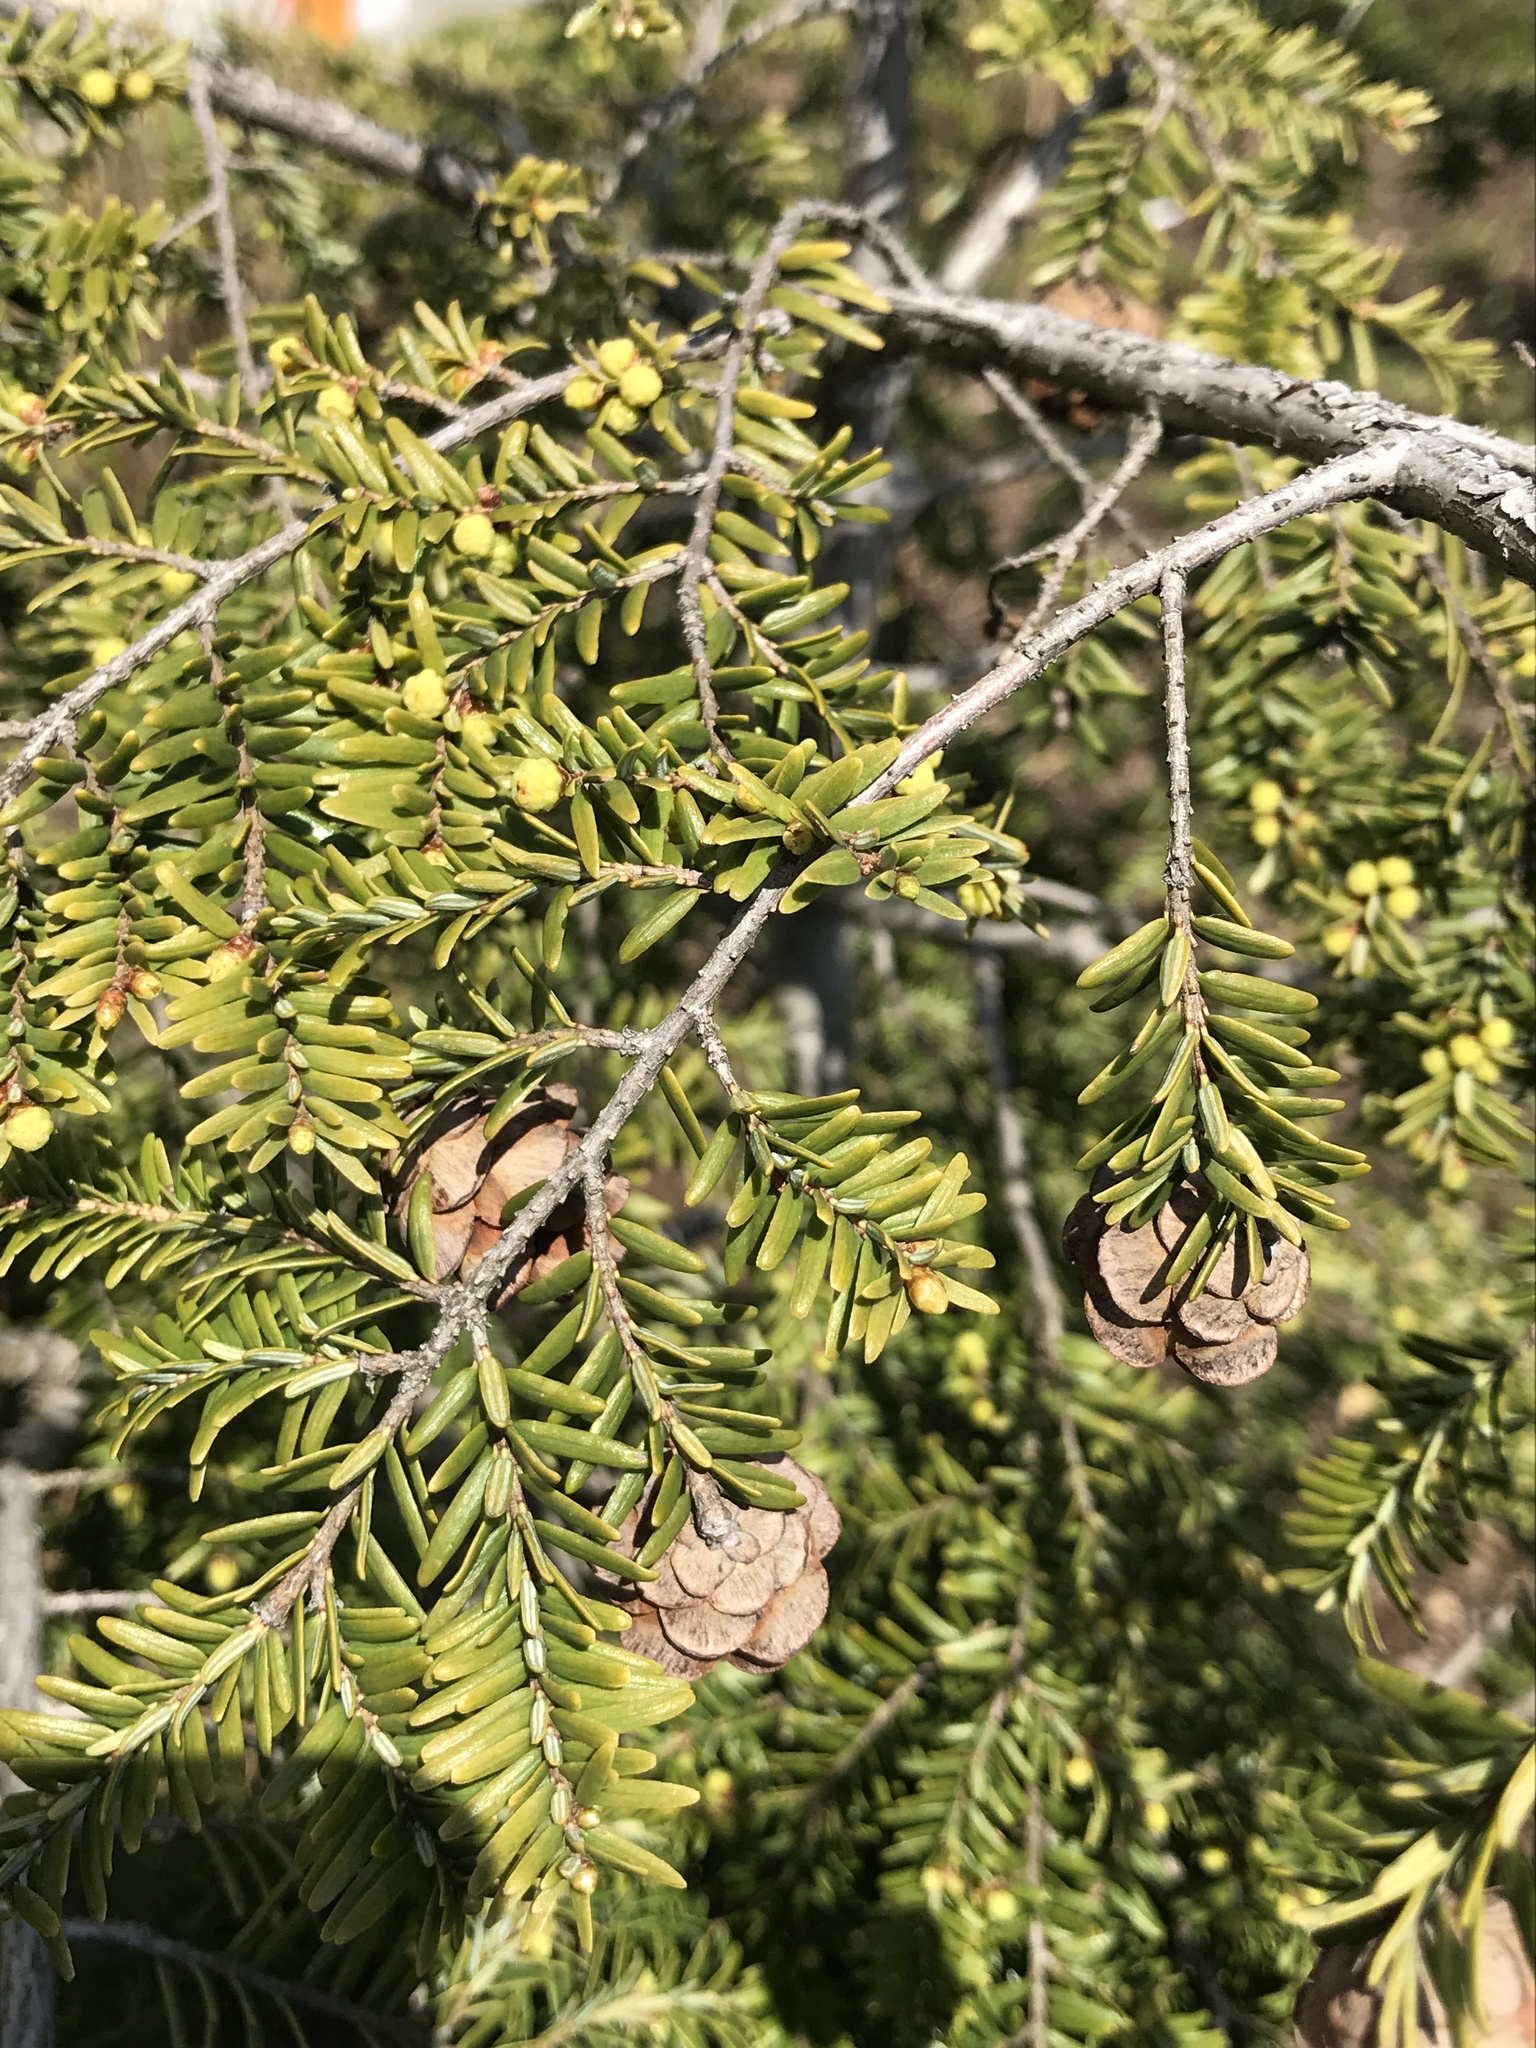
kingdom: Plantae
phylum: Tracheophyta
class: Pinopsida
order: Pinales
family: Pinaceae
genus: Tsuga
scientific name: Tsuga canadensis
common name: Eastern hemlock
